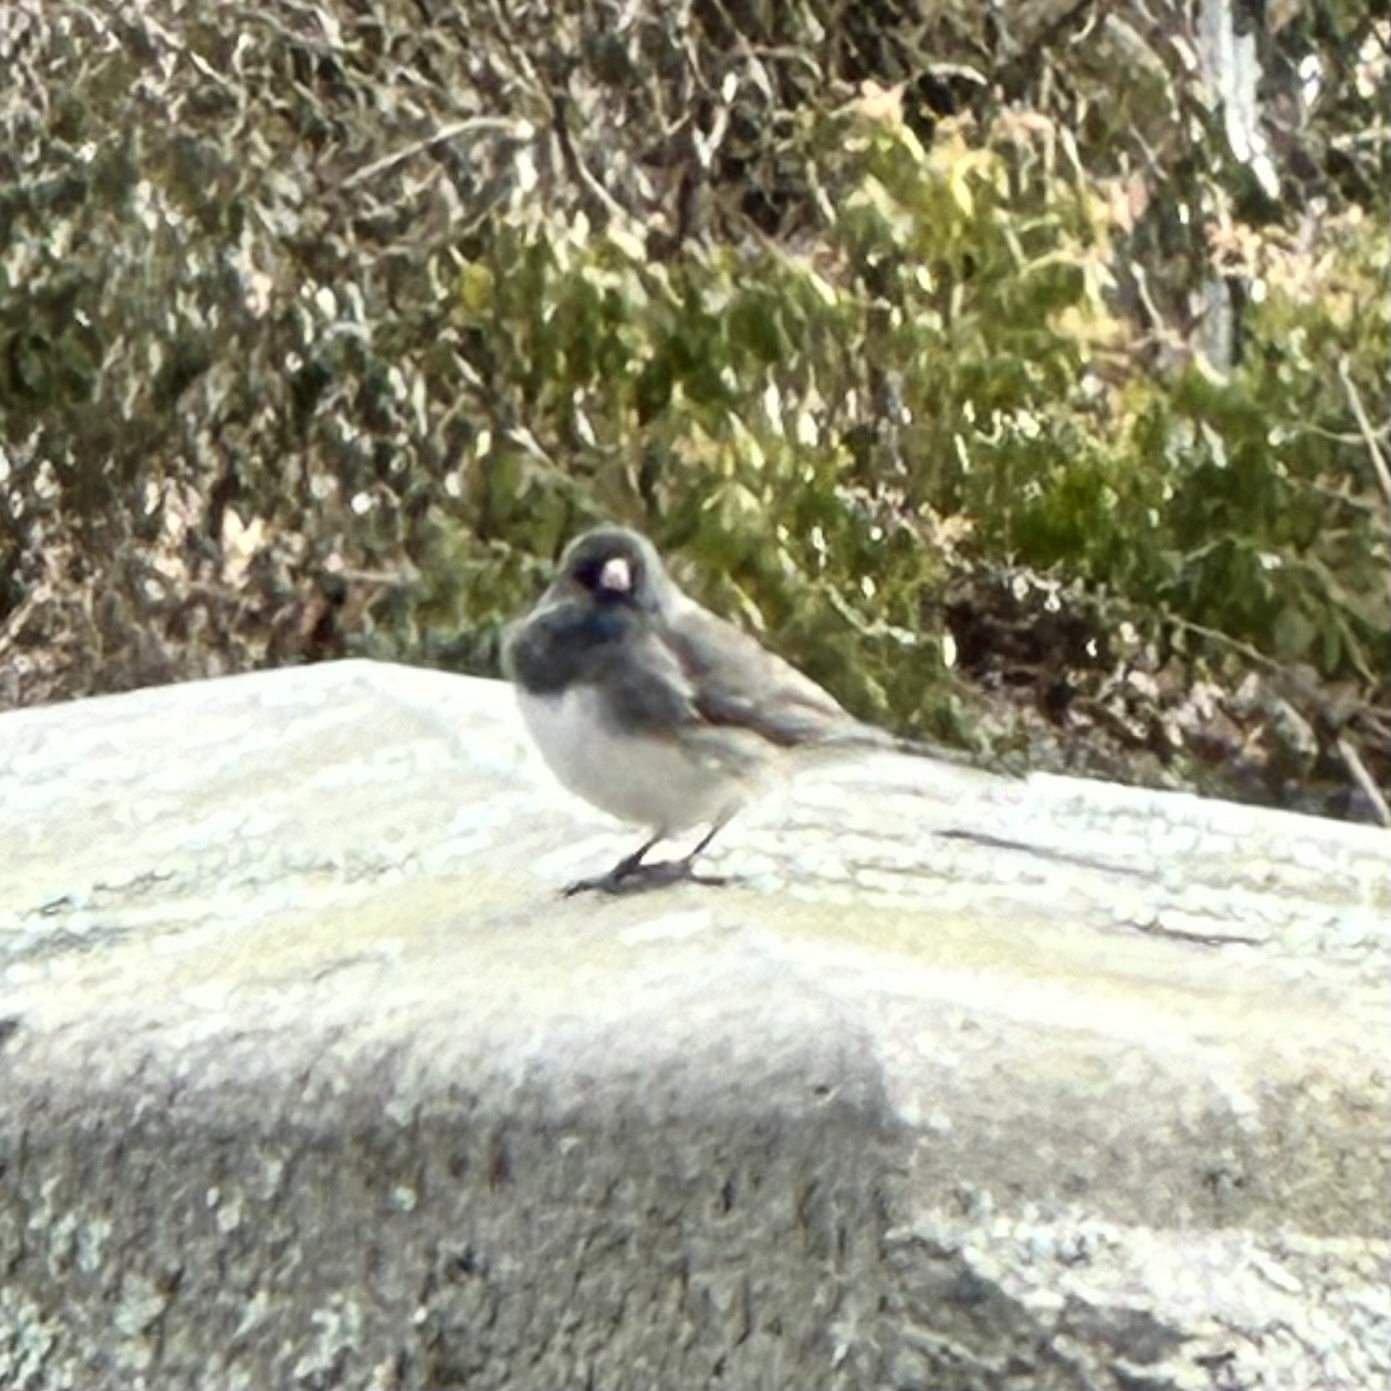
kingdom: Animalia
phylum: Chordata
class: Aves
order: Passeriformes
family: Passerellidae
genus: Junco
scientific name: Junco hyemalis
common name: Dark-eyed junco
